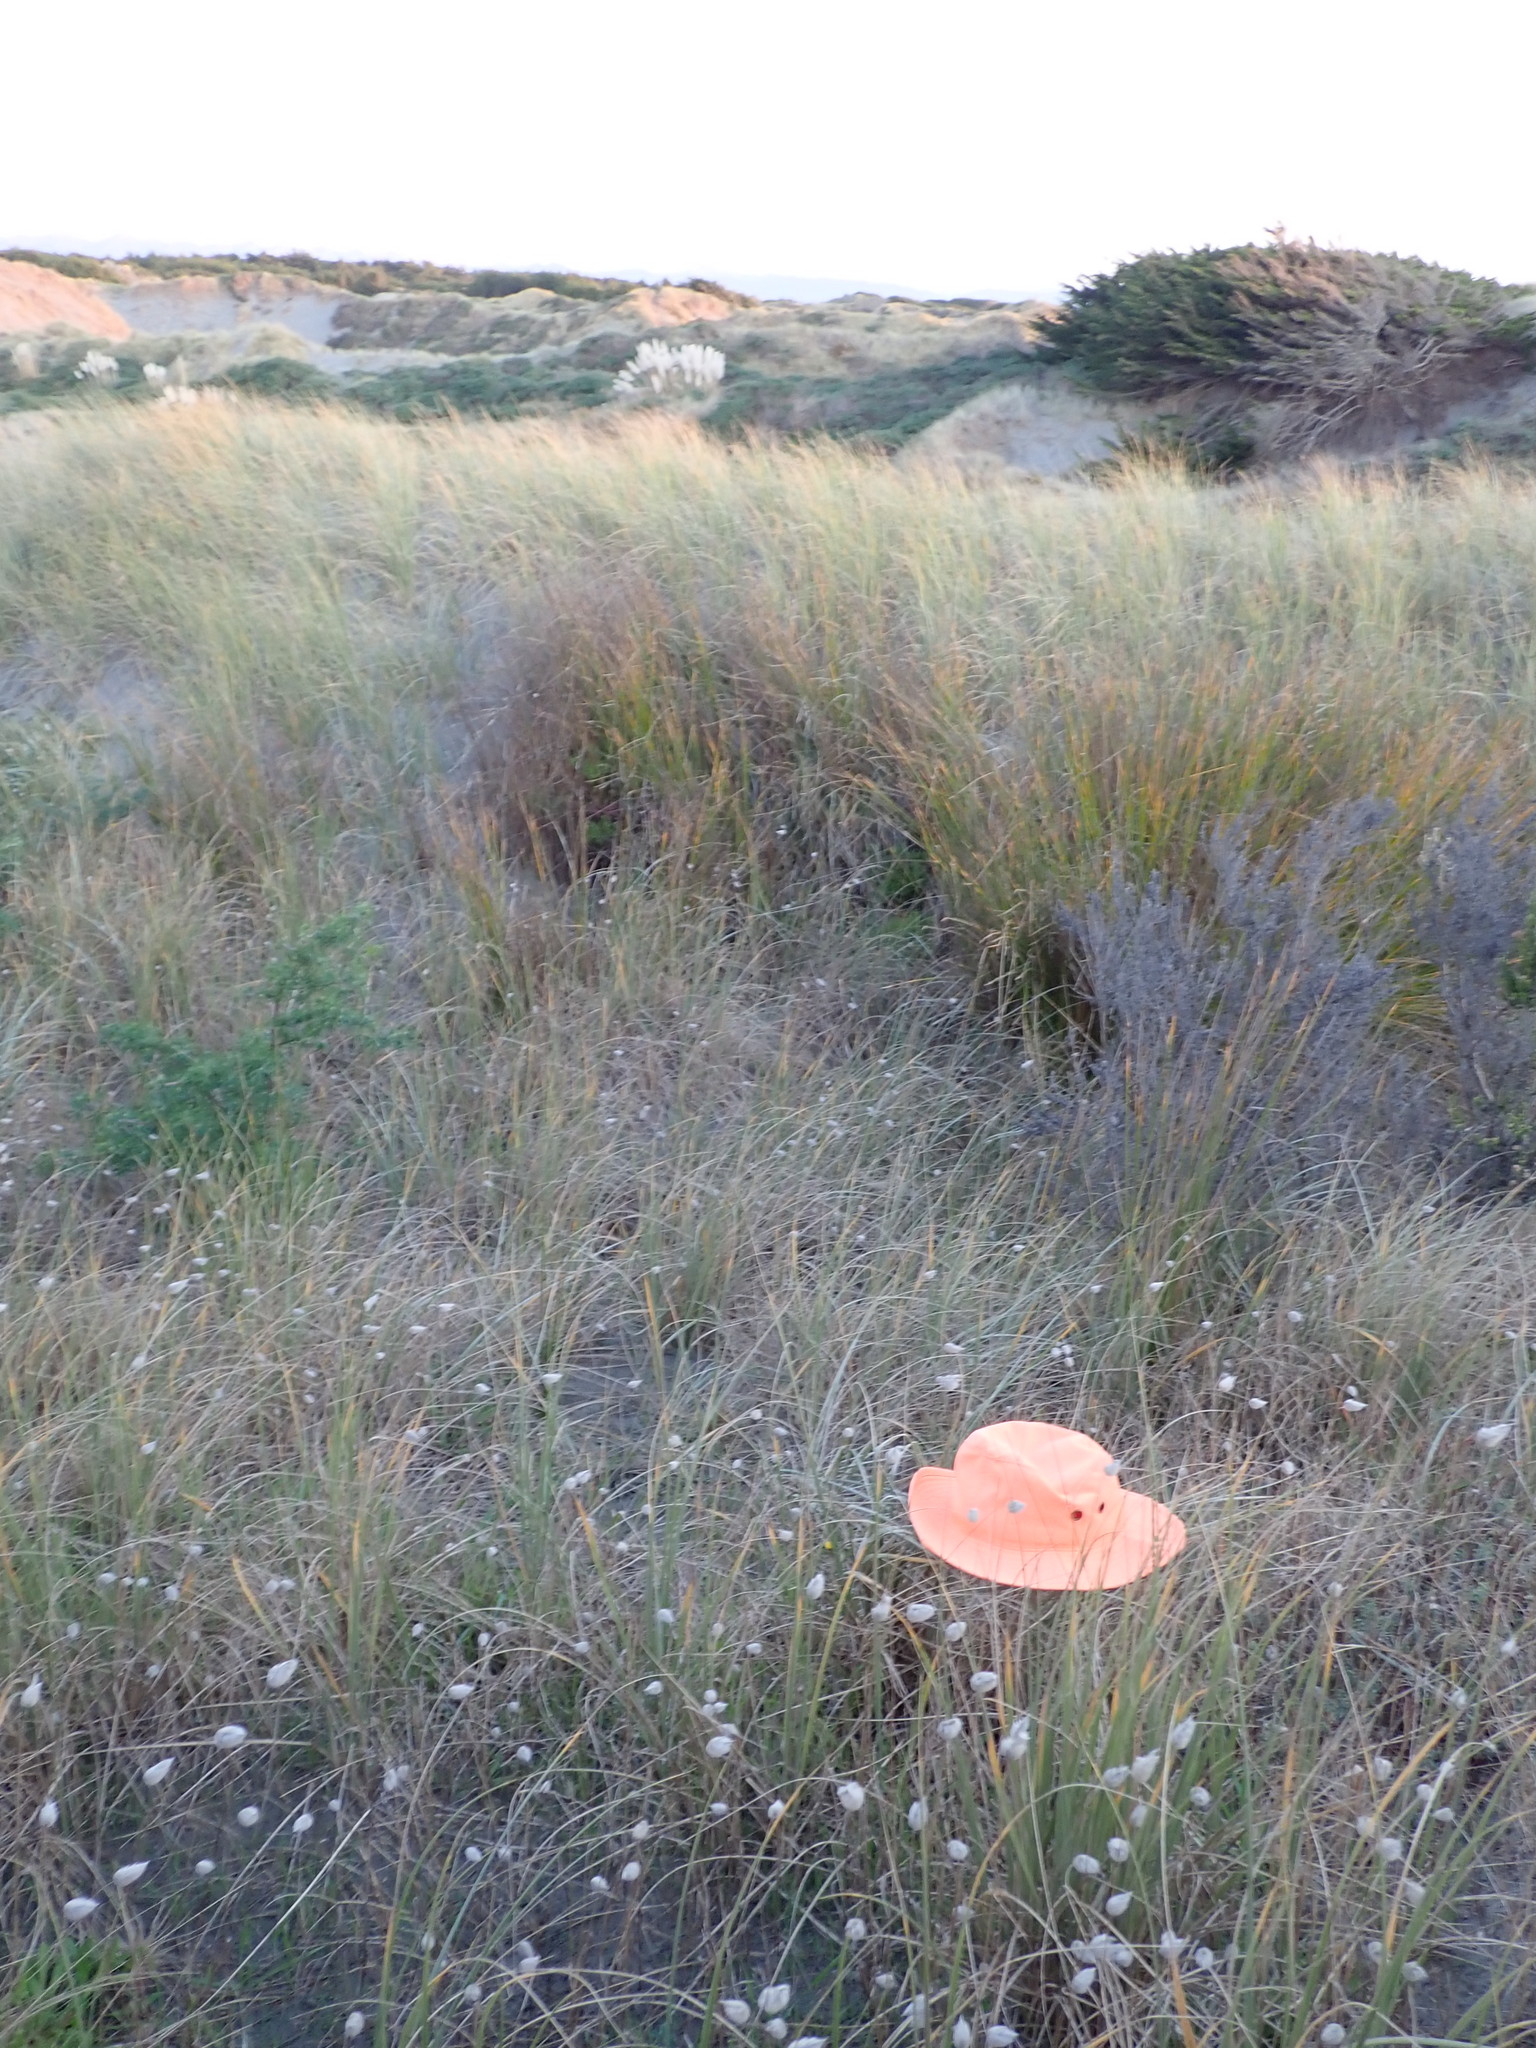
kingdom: Animalia
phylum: Arthropoda
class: Arachnida
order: Araneae
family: Theridiidae
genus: Latrodectus
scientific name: Latrodectus katipo
